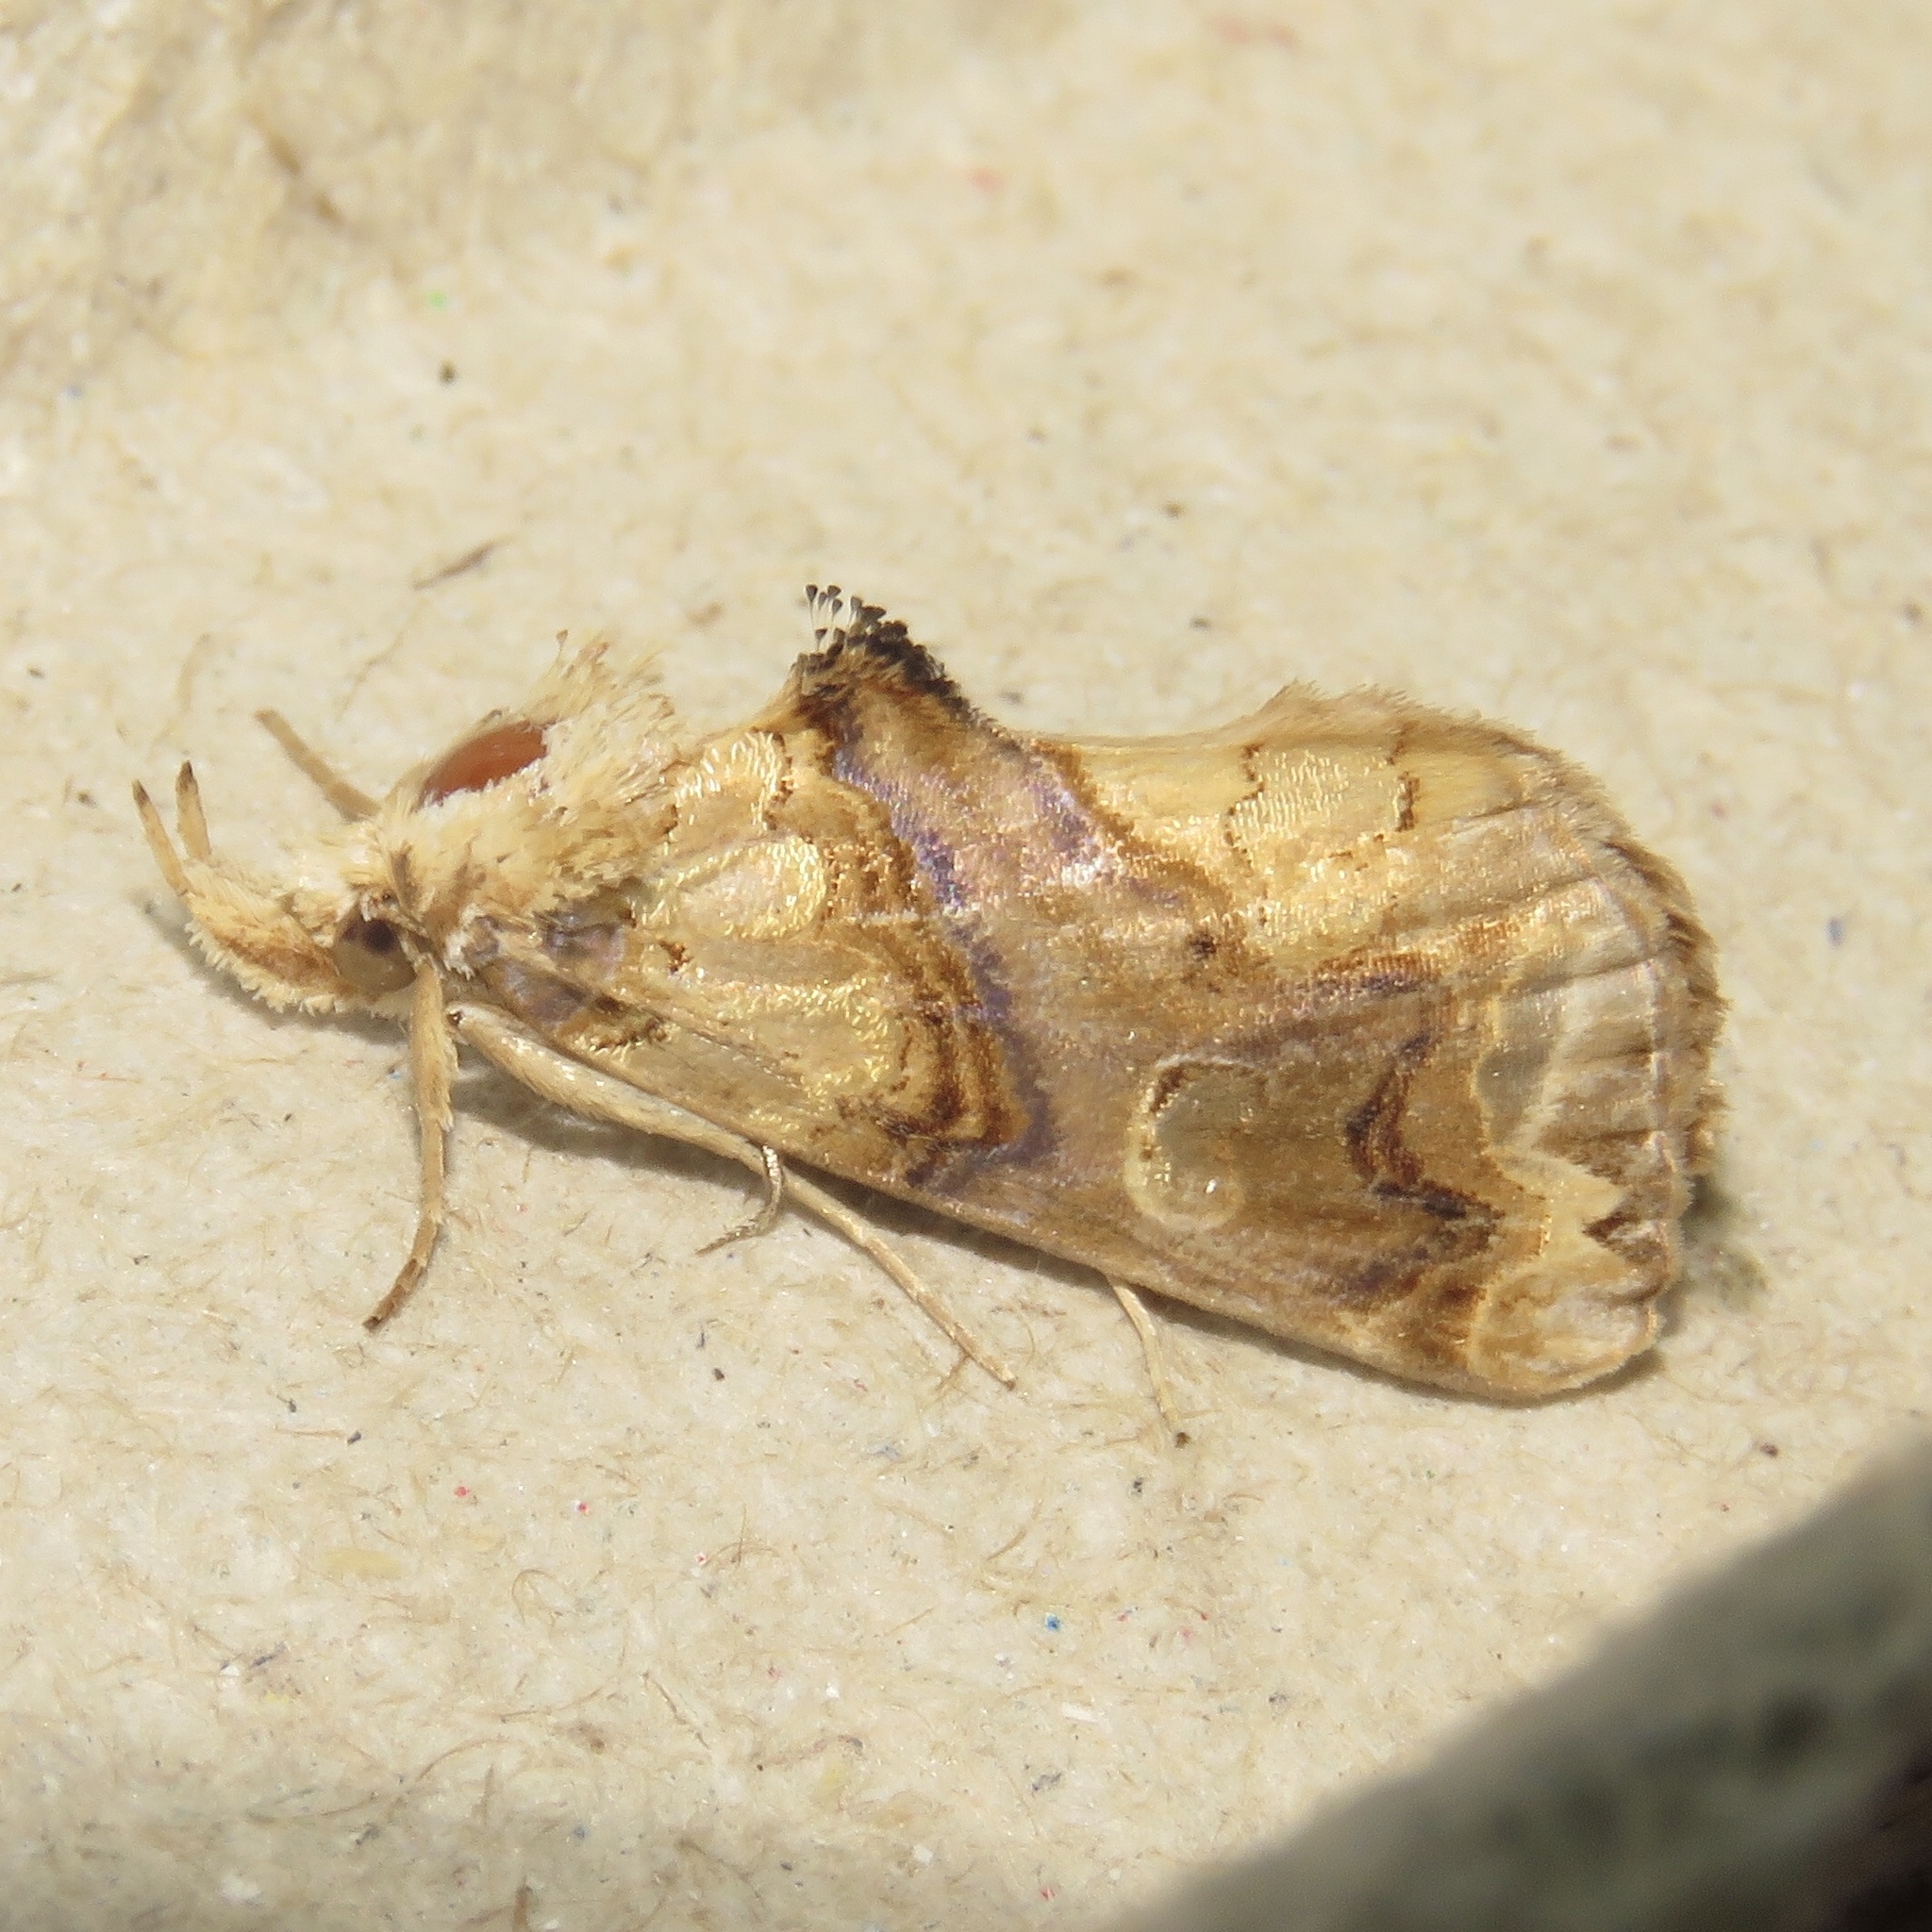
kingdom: Animalia
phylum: Arthropoda
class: Insecta
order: Lepidoptera
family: Erebidae
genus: Plusiodonta
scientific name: Plusiodonta compressipalpis
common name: Moonseed moth
